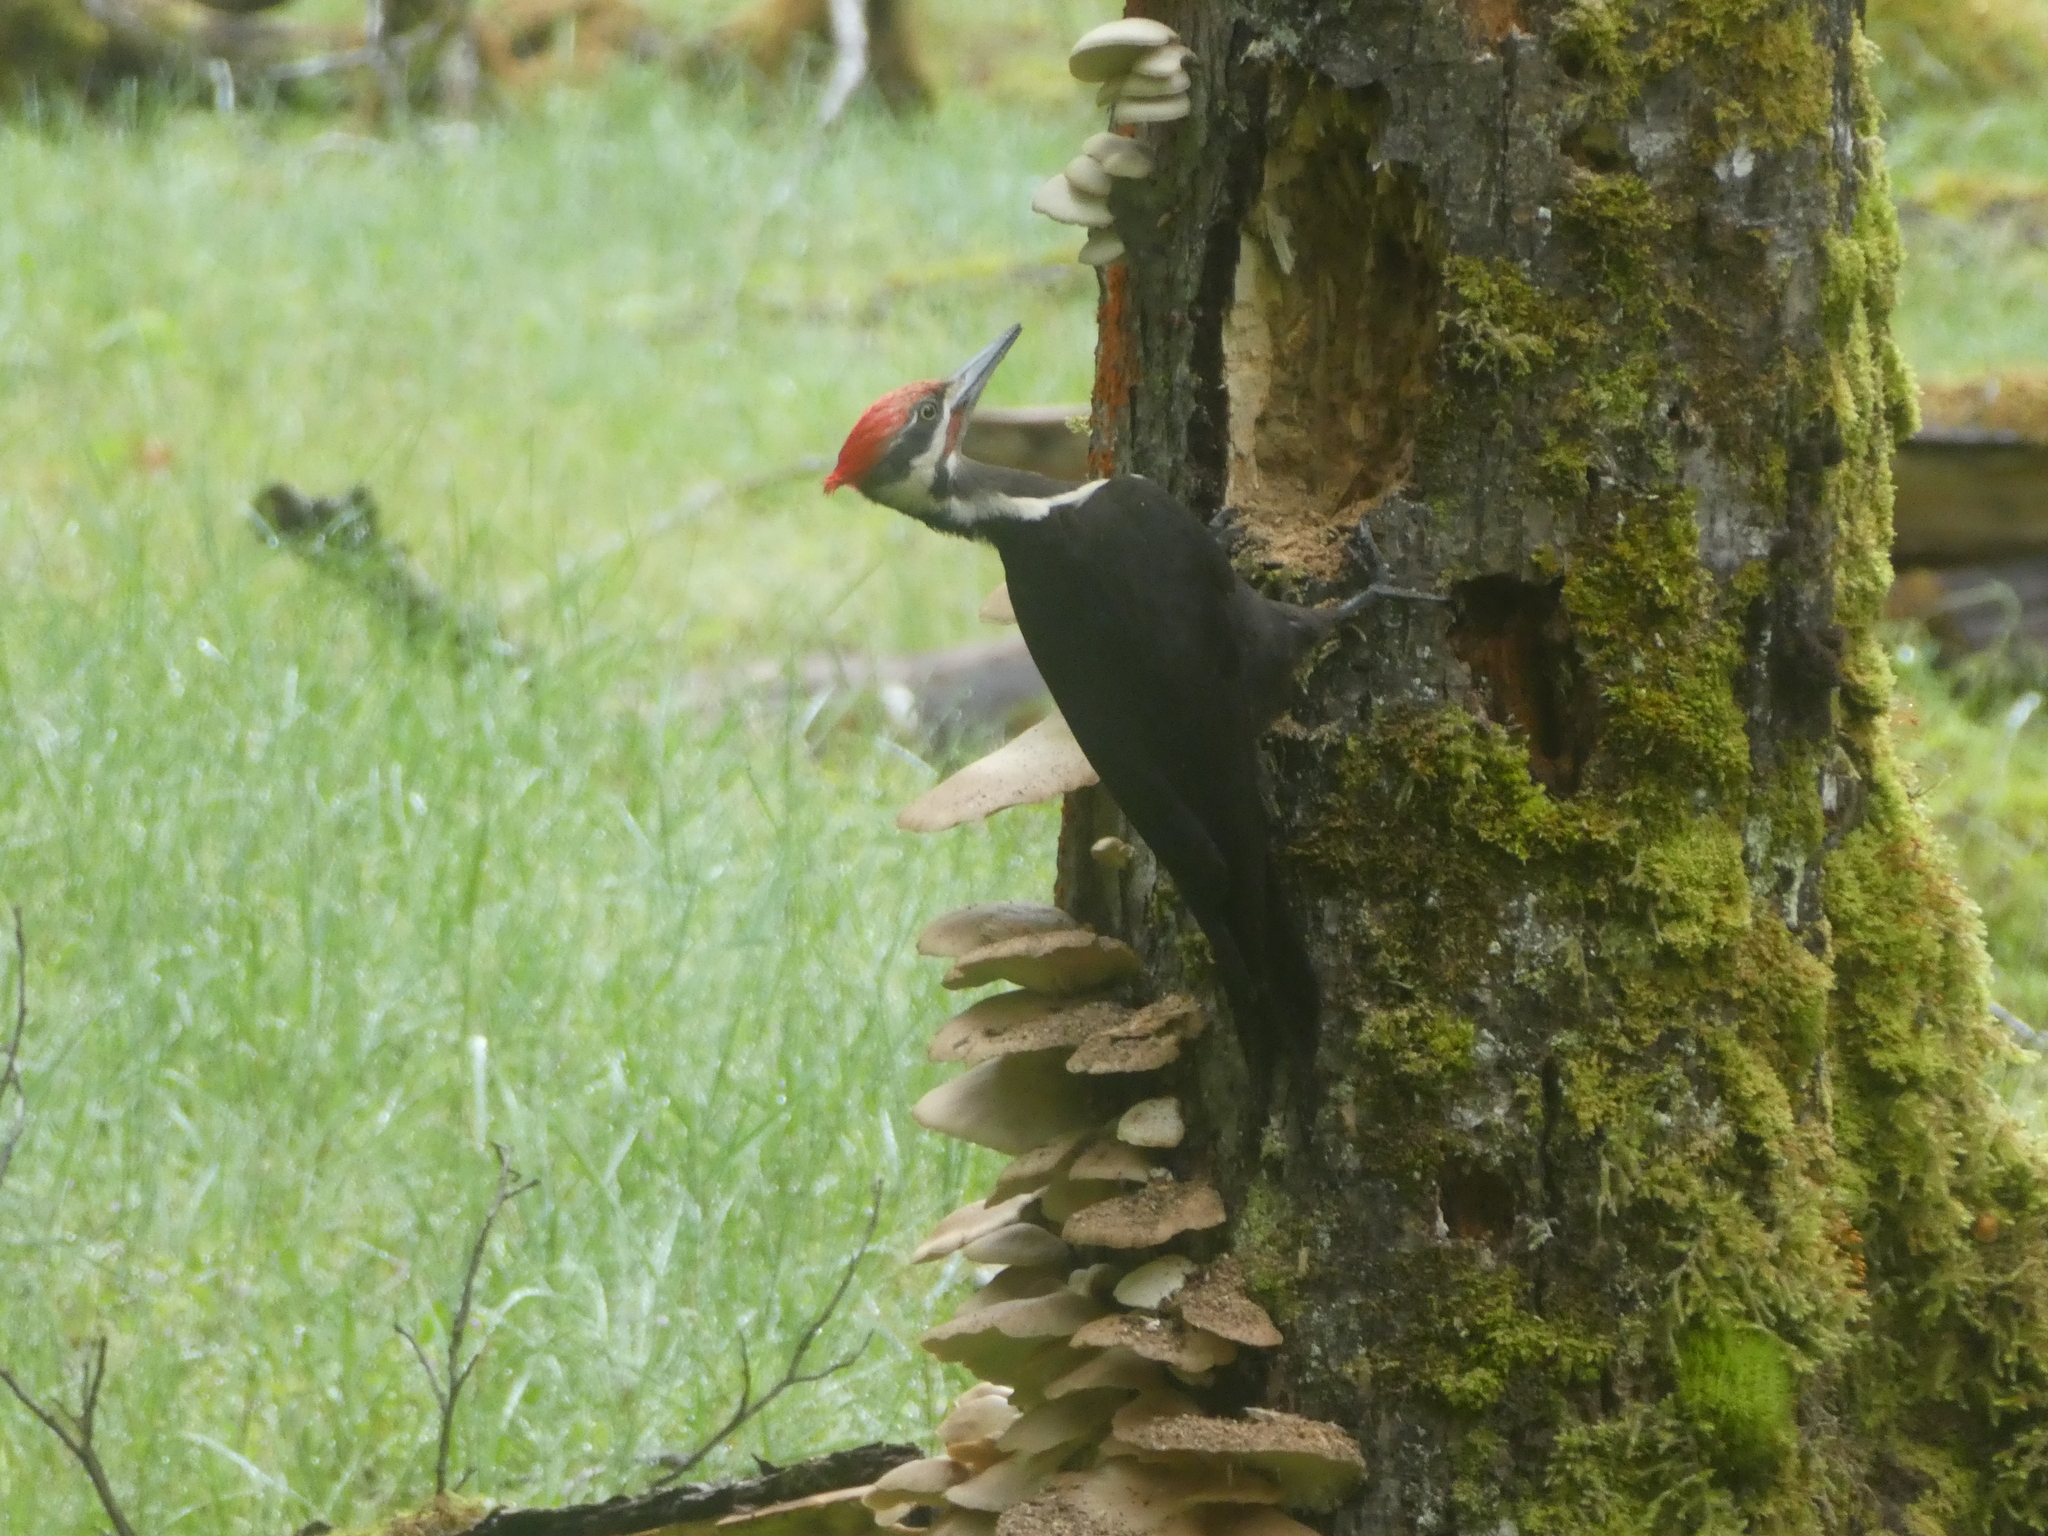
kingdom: Animalia
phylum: Chordata
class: Aves
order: Piciformes
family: Picidae
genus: Dryocopus
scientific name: Dryocopus pileatus
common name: Pileated woodpecker
